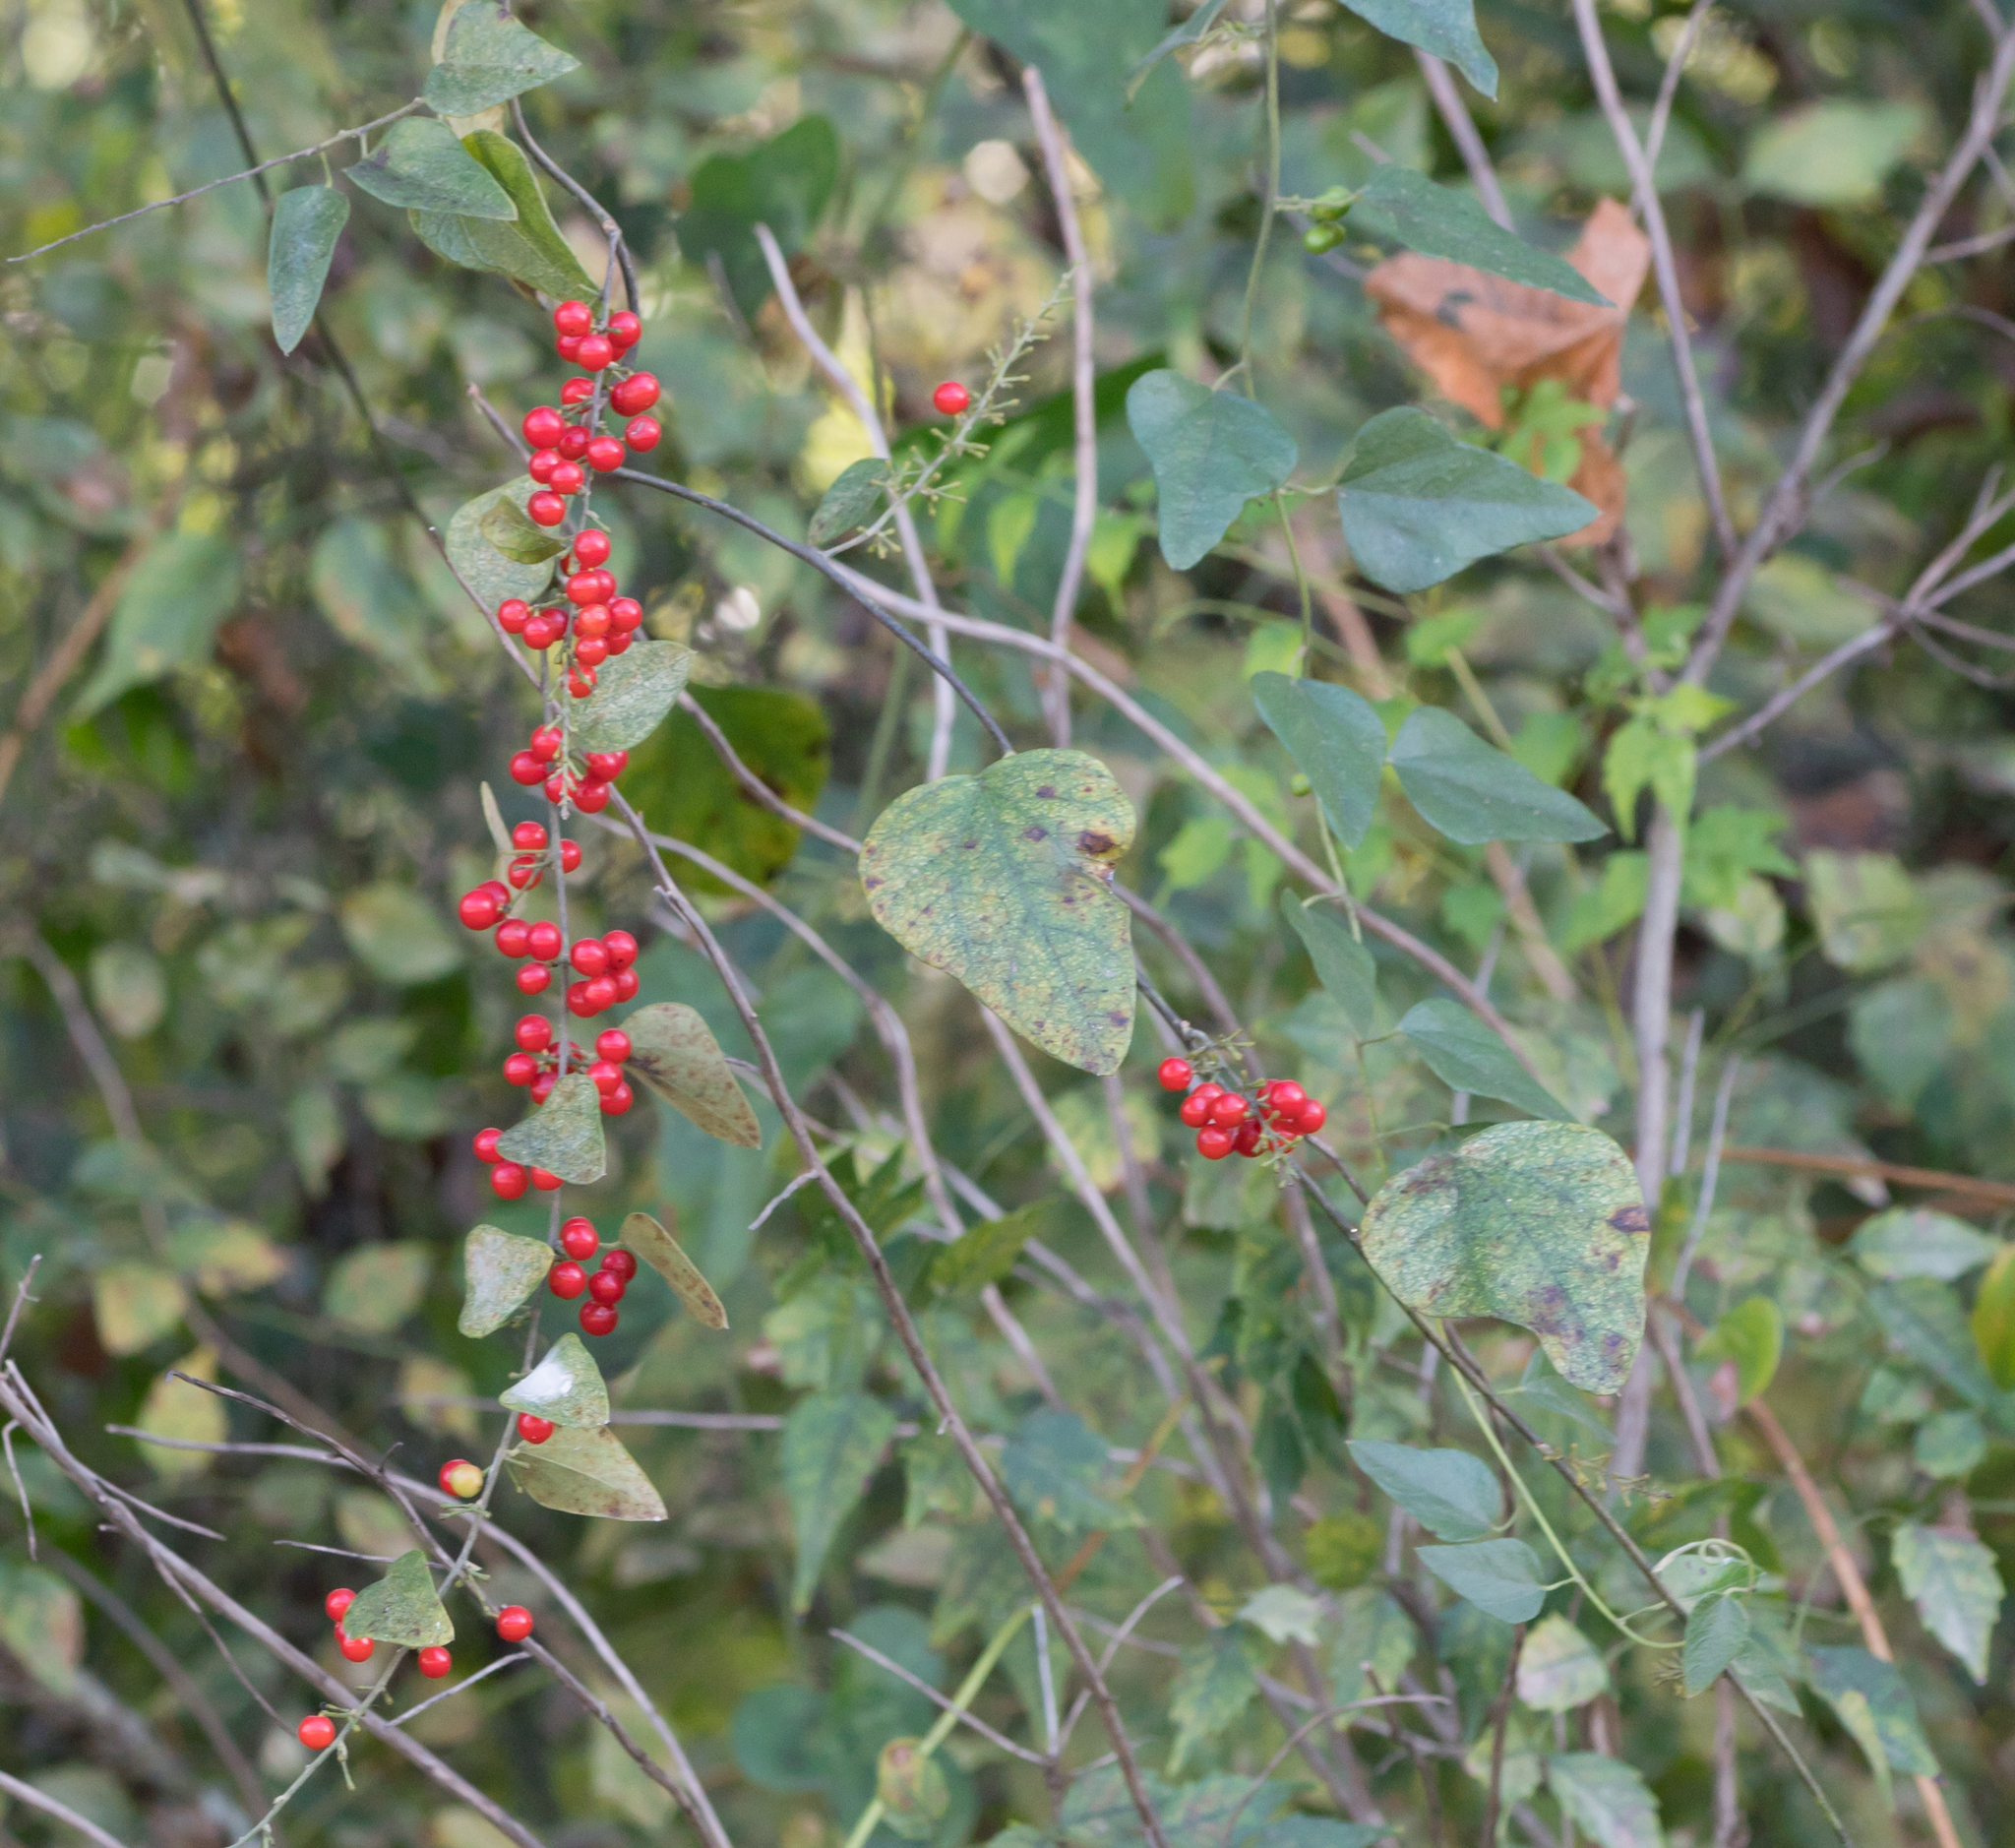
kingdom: Plantae
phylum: Tracheophyta
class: Magnoliopsida
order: Ranunculales
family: Menispermaceae
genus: Cocculus
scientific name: Cocculus carolinus
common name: Carolina moonseed
